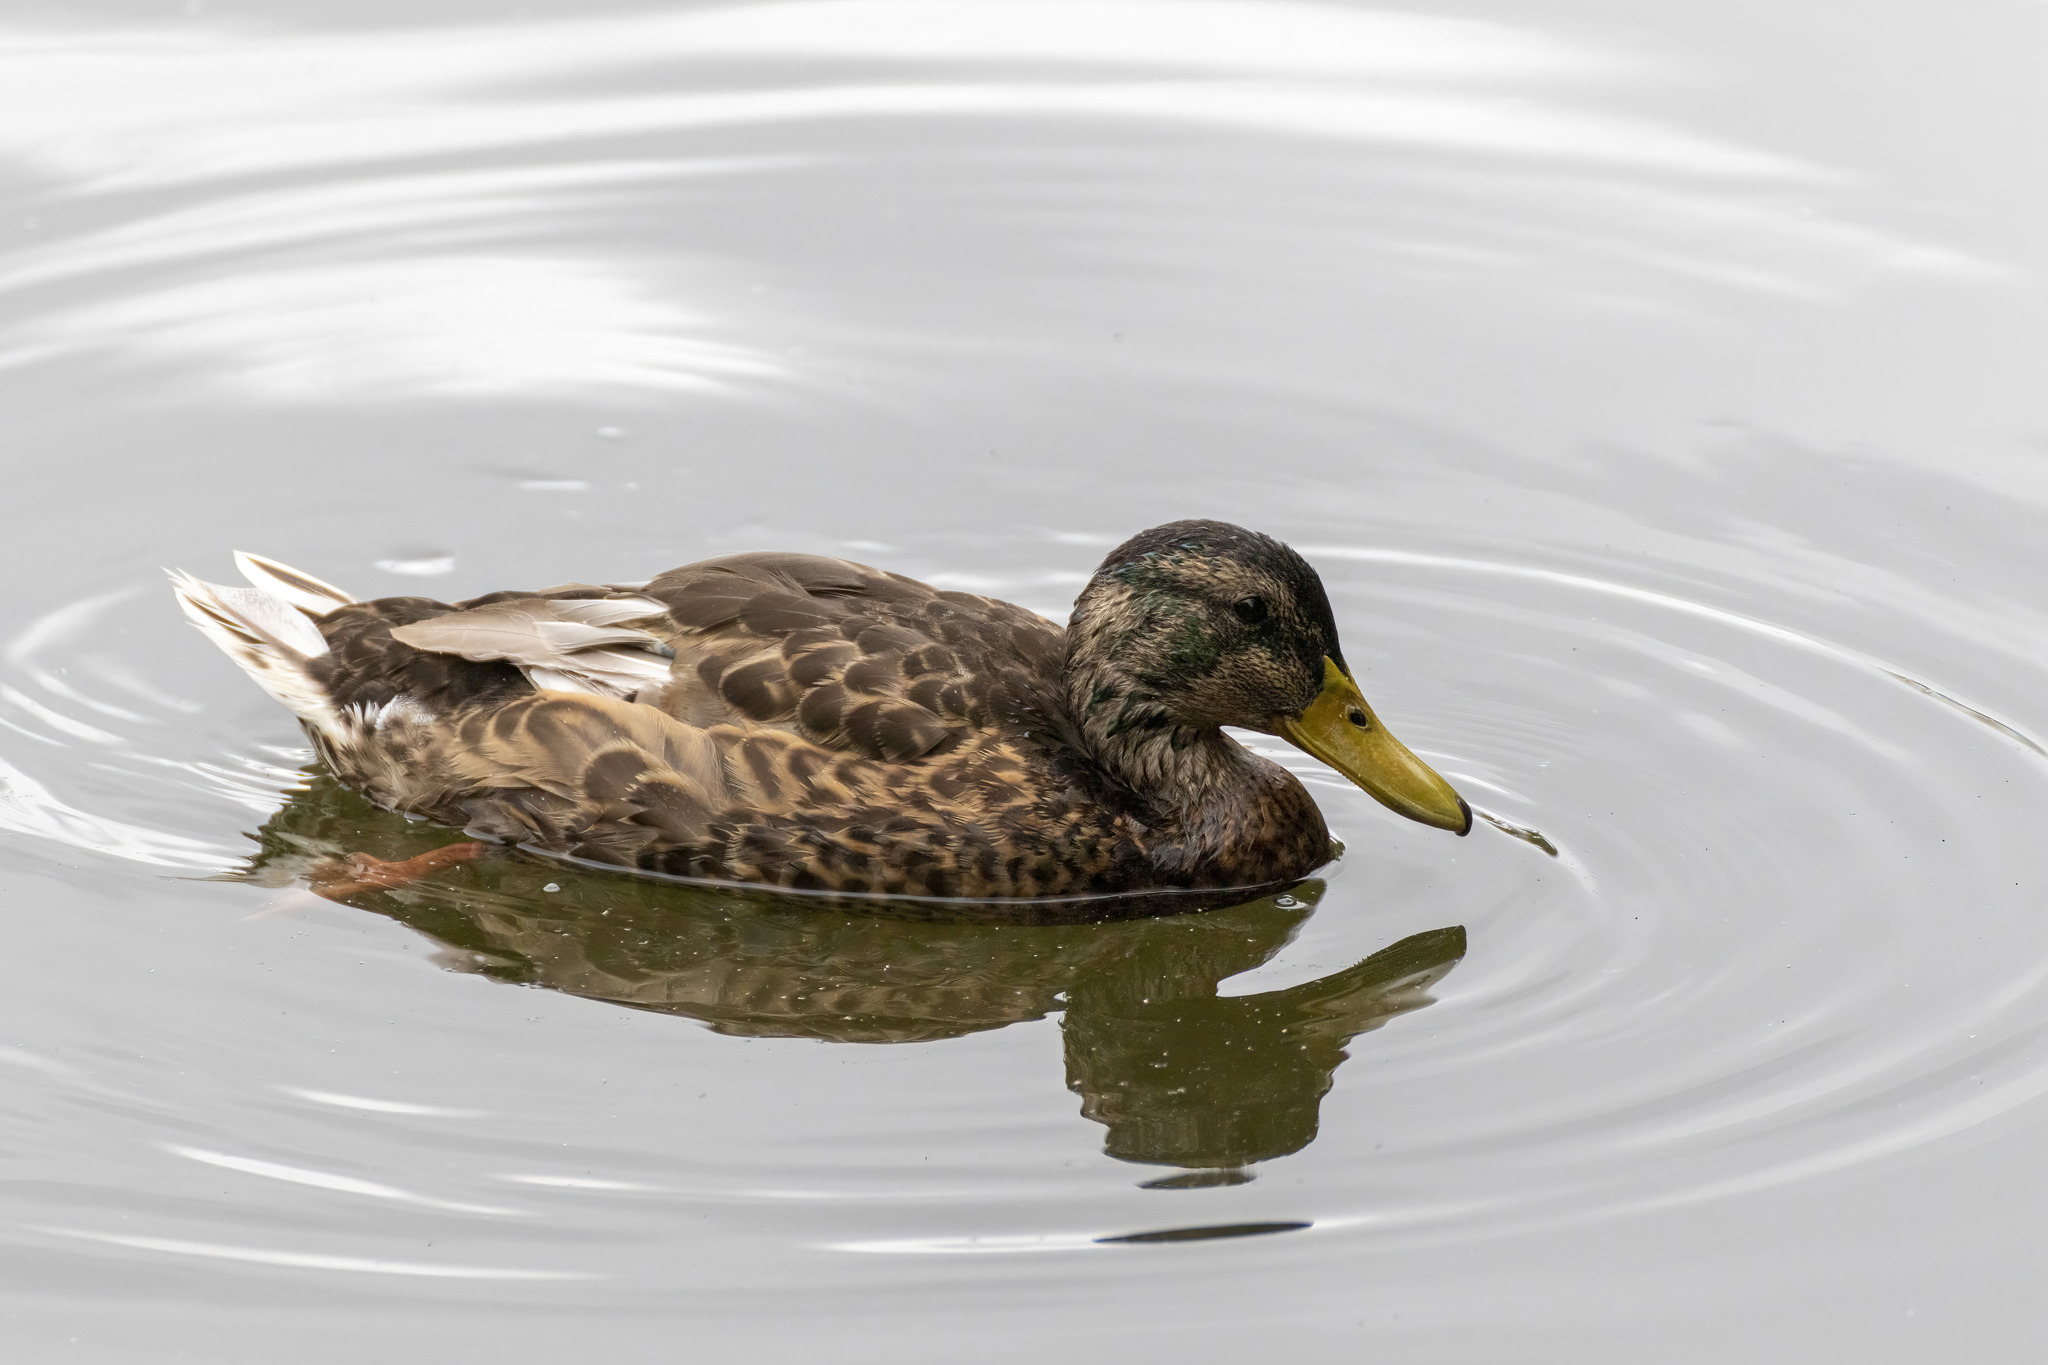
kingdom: Animalia
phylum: Chordata
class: Aves
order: Anseriformes
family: Anatidae
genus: Anas
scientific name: Anas platyrhynchos
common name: Mallard
